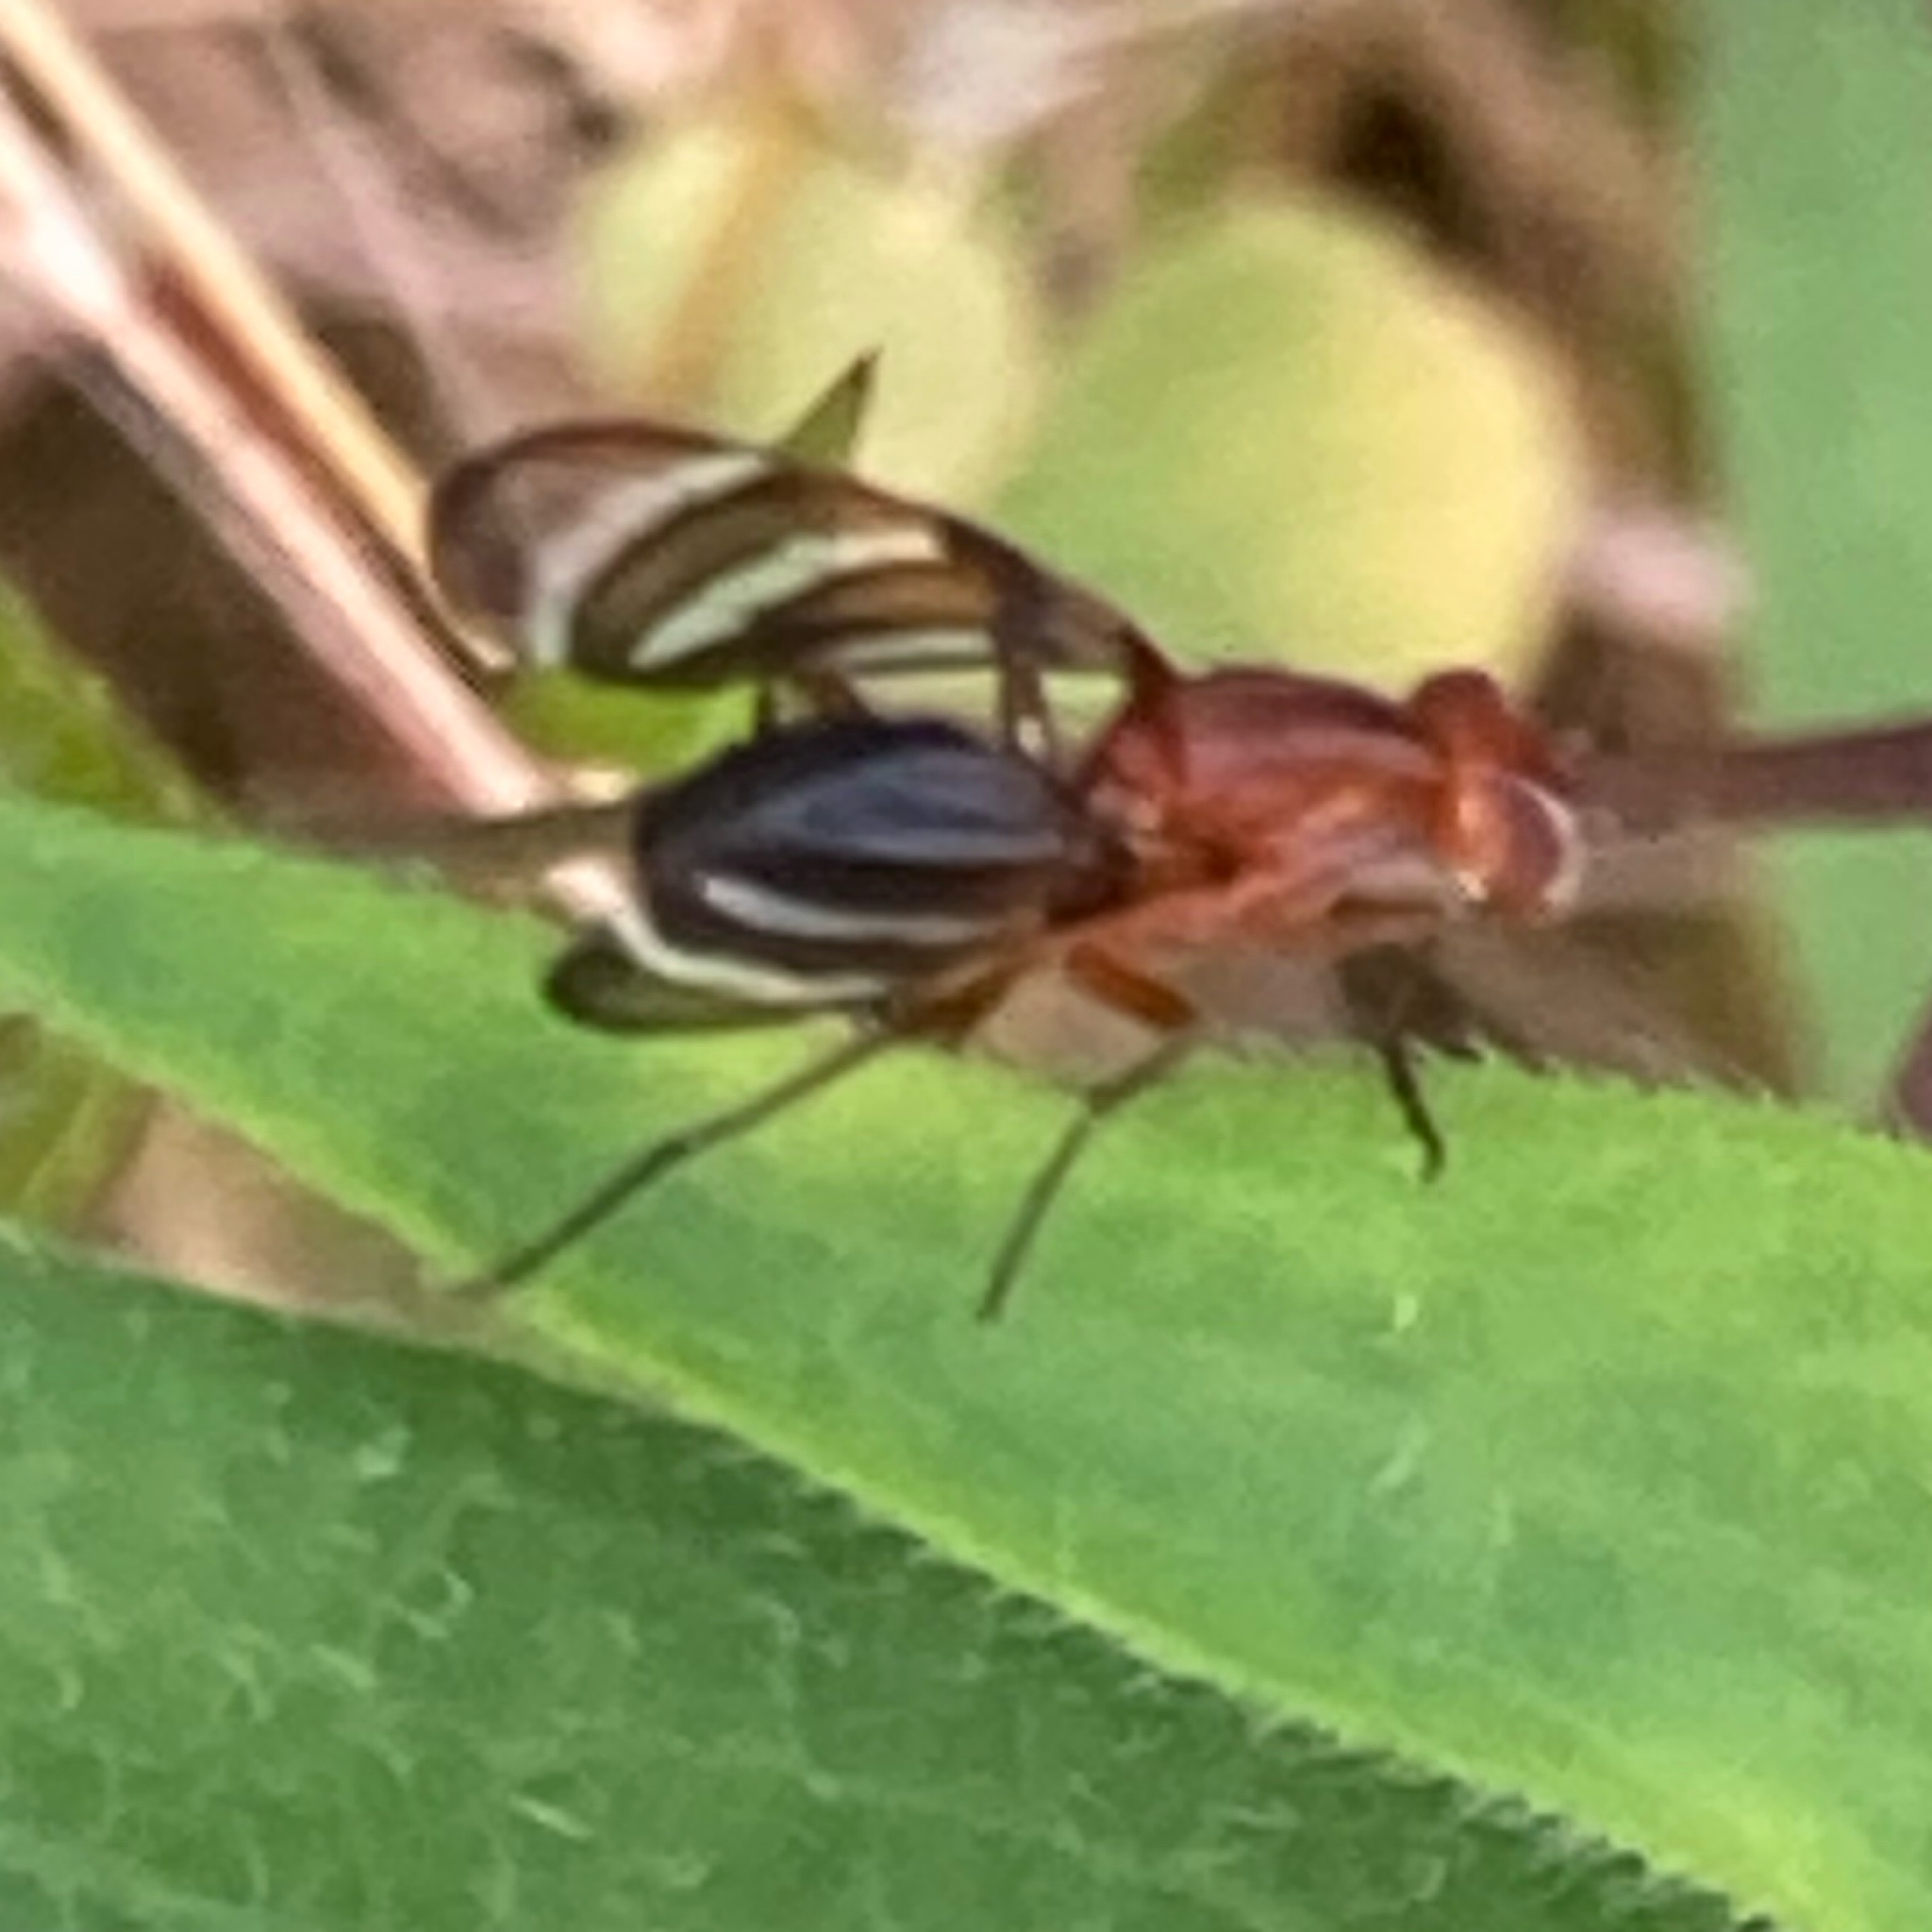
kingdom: Animalia
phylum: Arthropoda
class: Insecta
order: Diptera
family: Ulidiidae
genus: Tritoxa
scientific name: Tritoxa incurva
